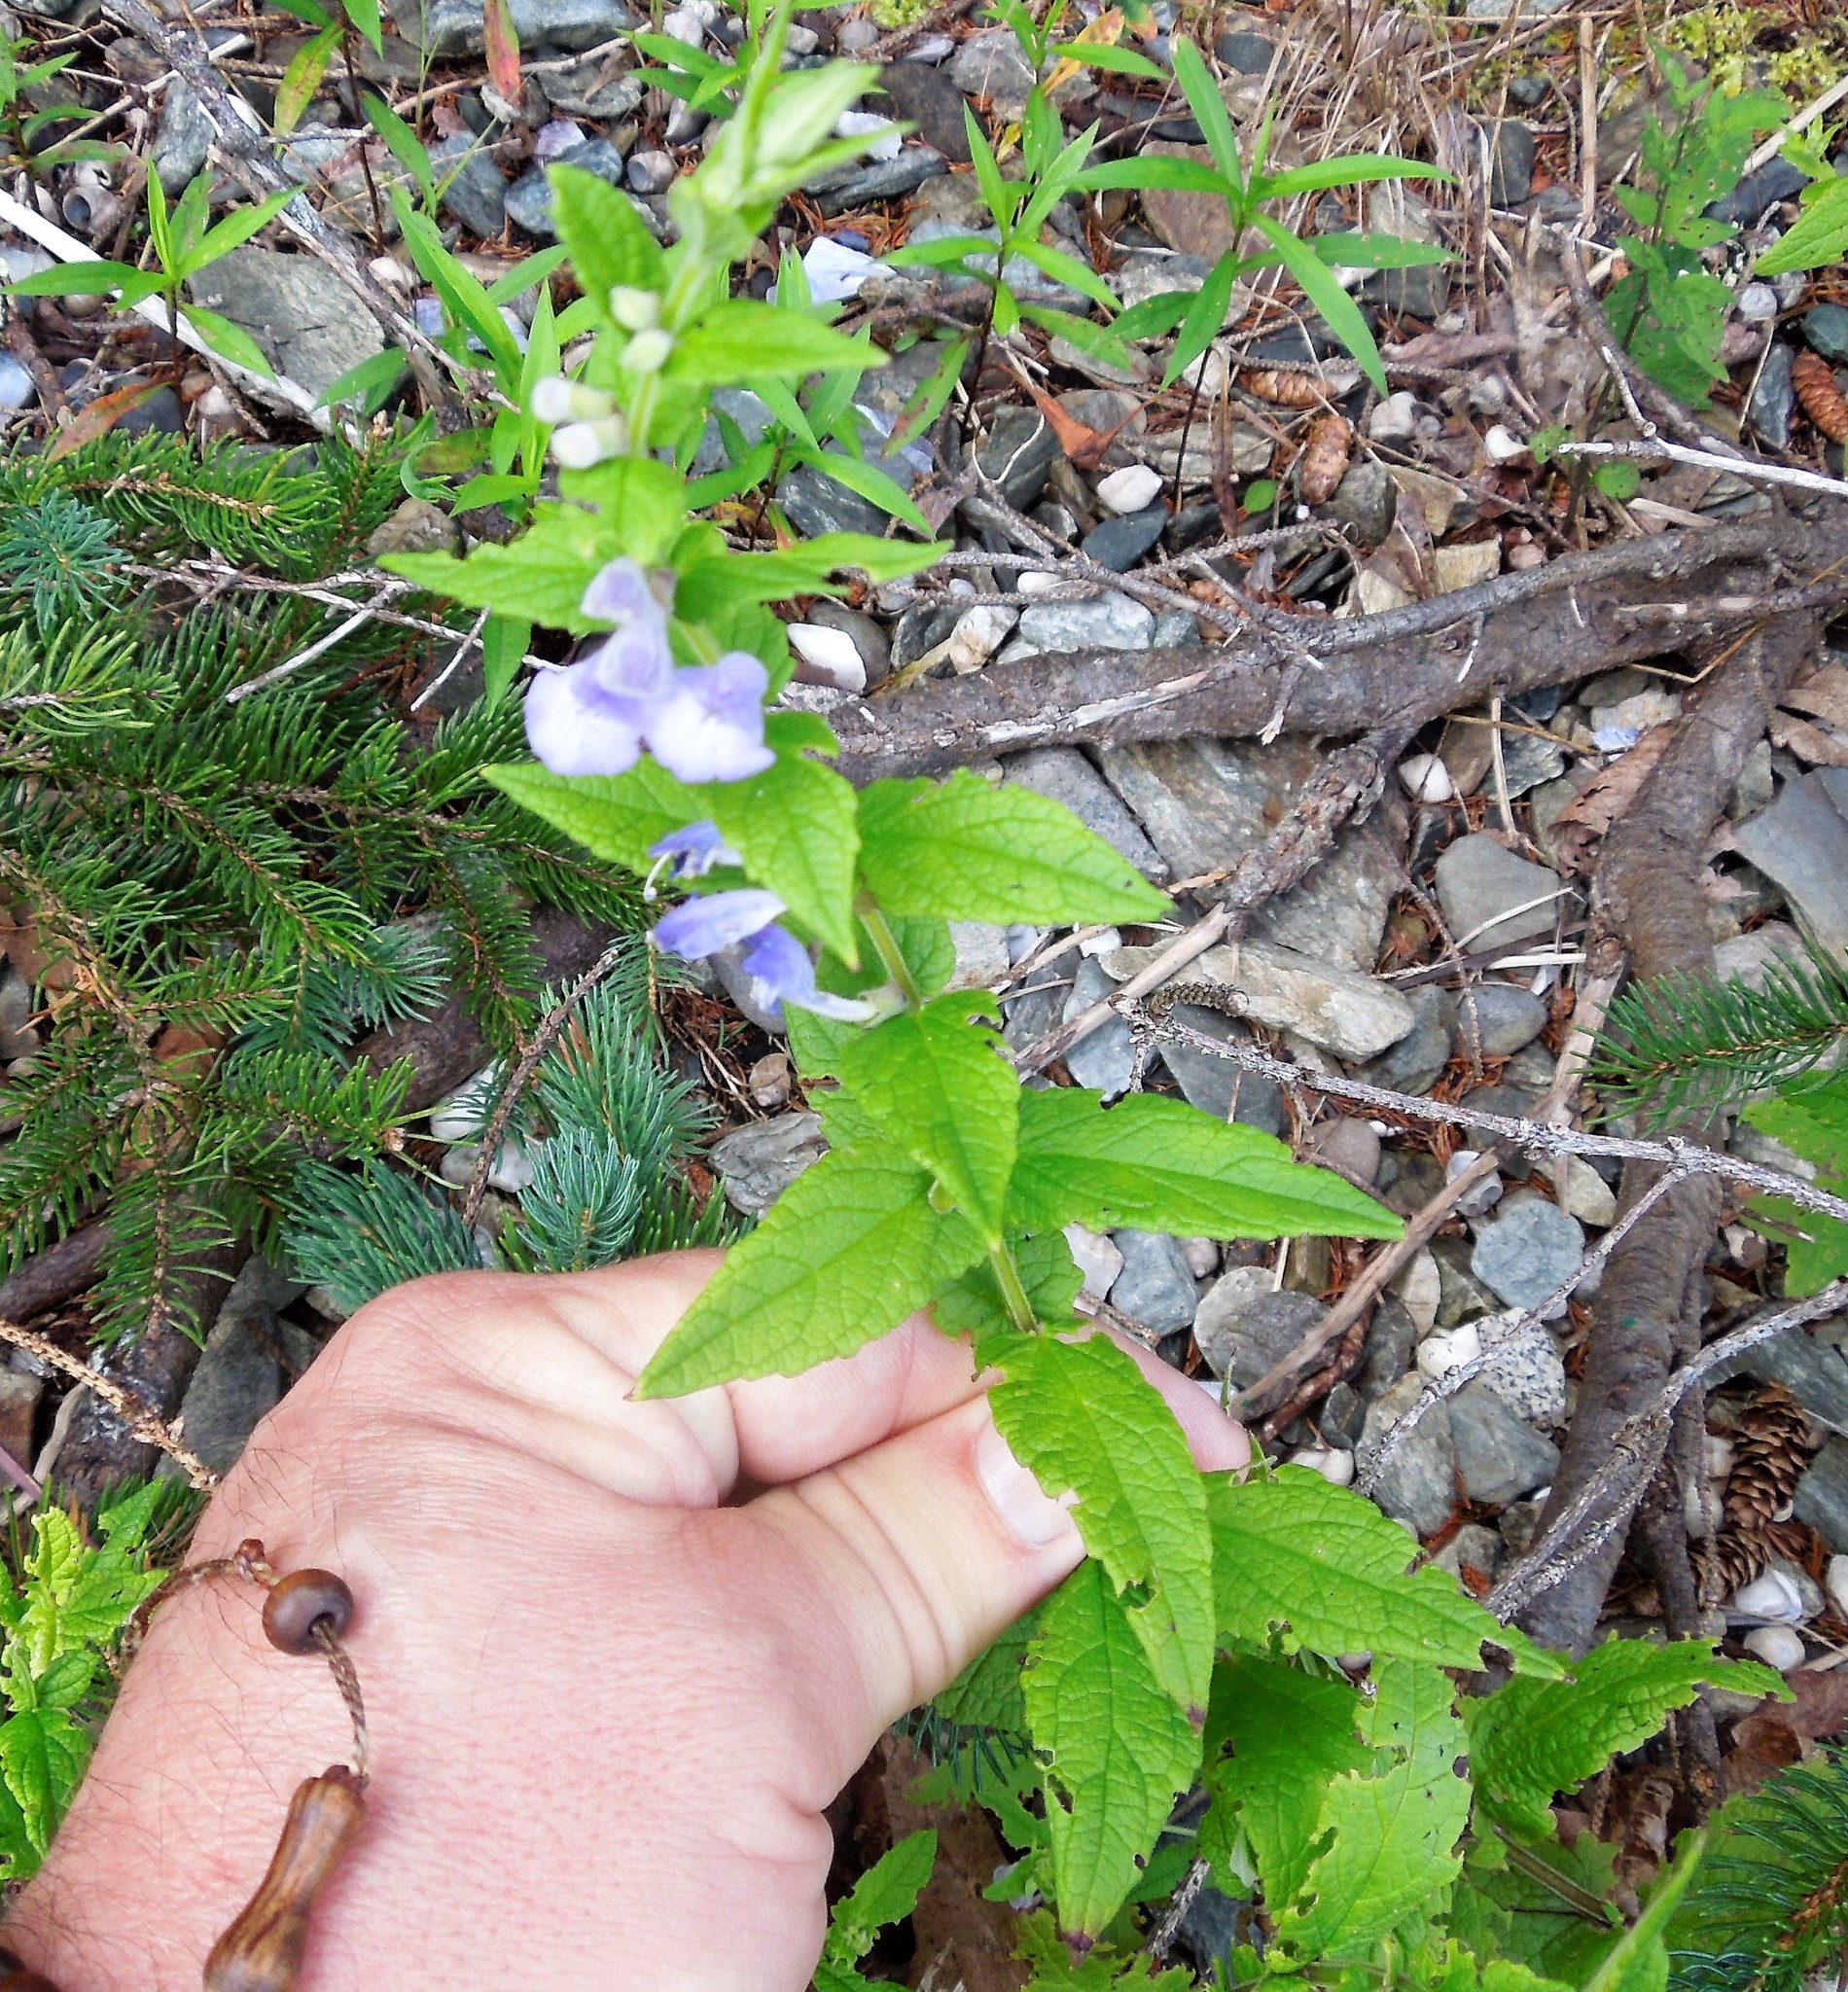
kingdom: Plantae
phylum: Tracheophyta
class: Magnoliopsida
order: Lamiales
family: Lamiaceae
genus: Scutellaria
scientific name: Scutellaria galericulata
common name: Skullcap
